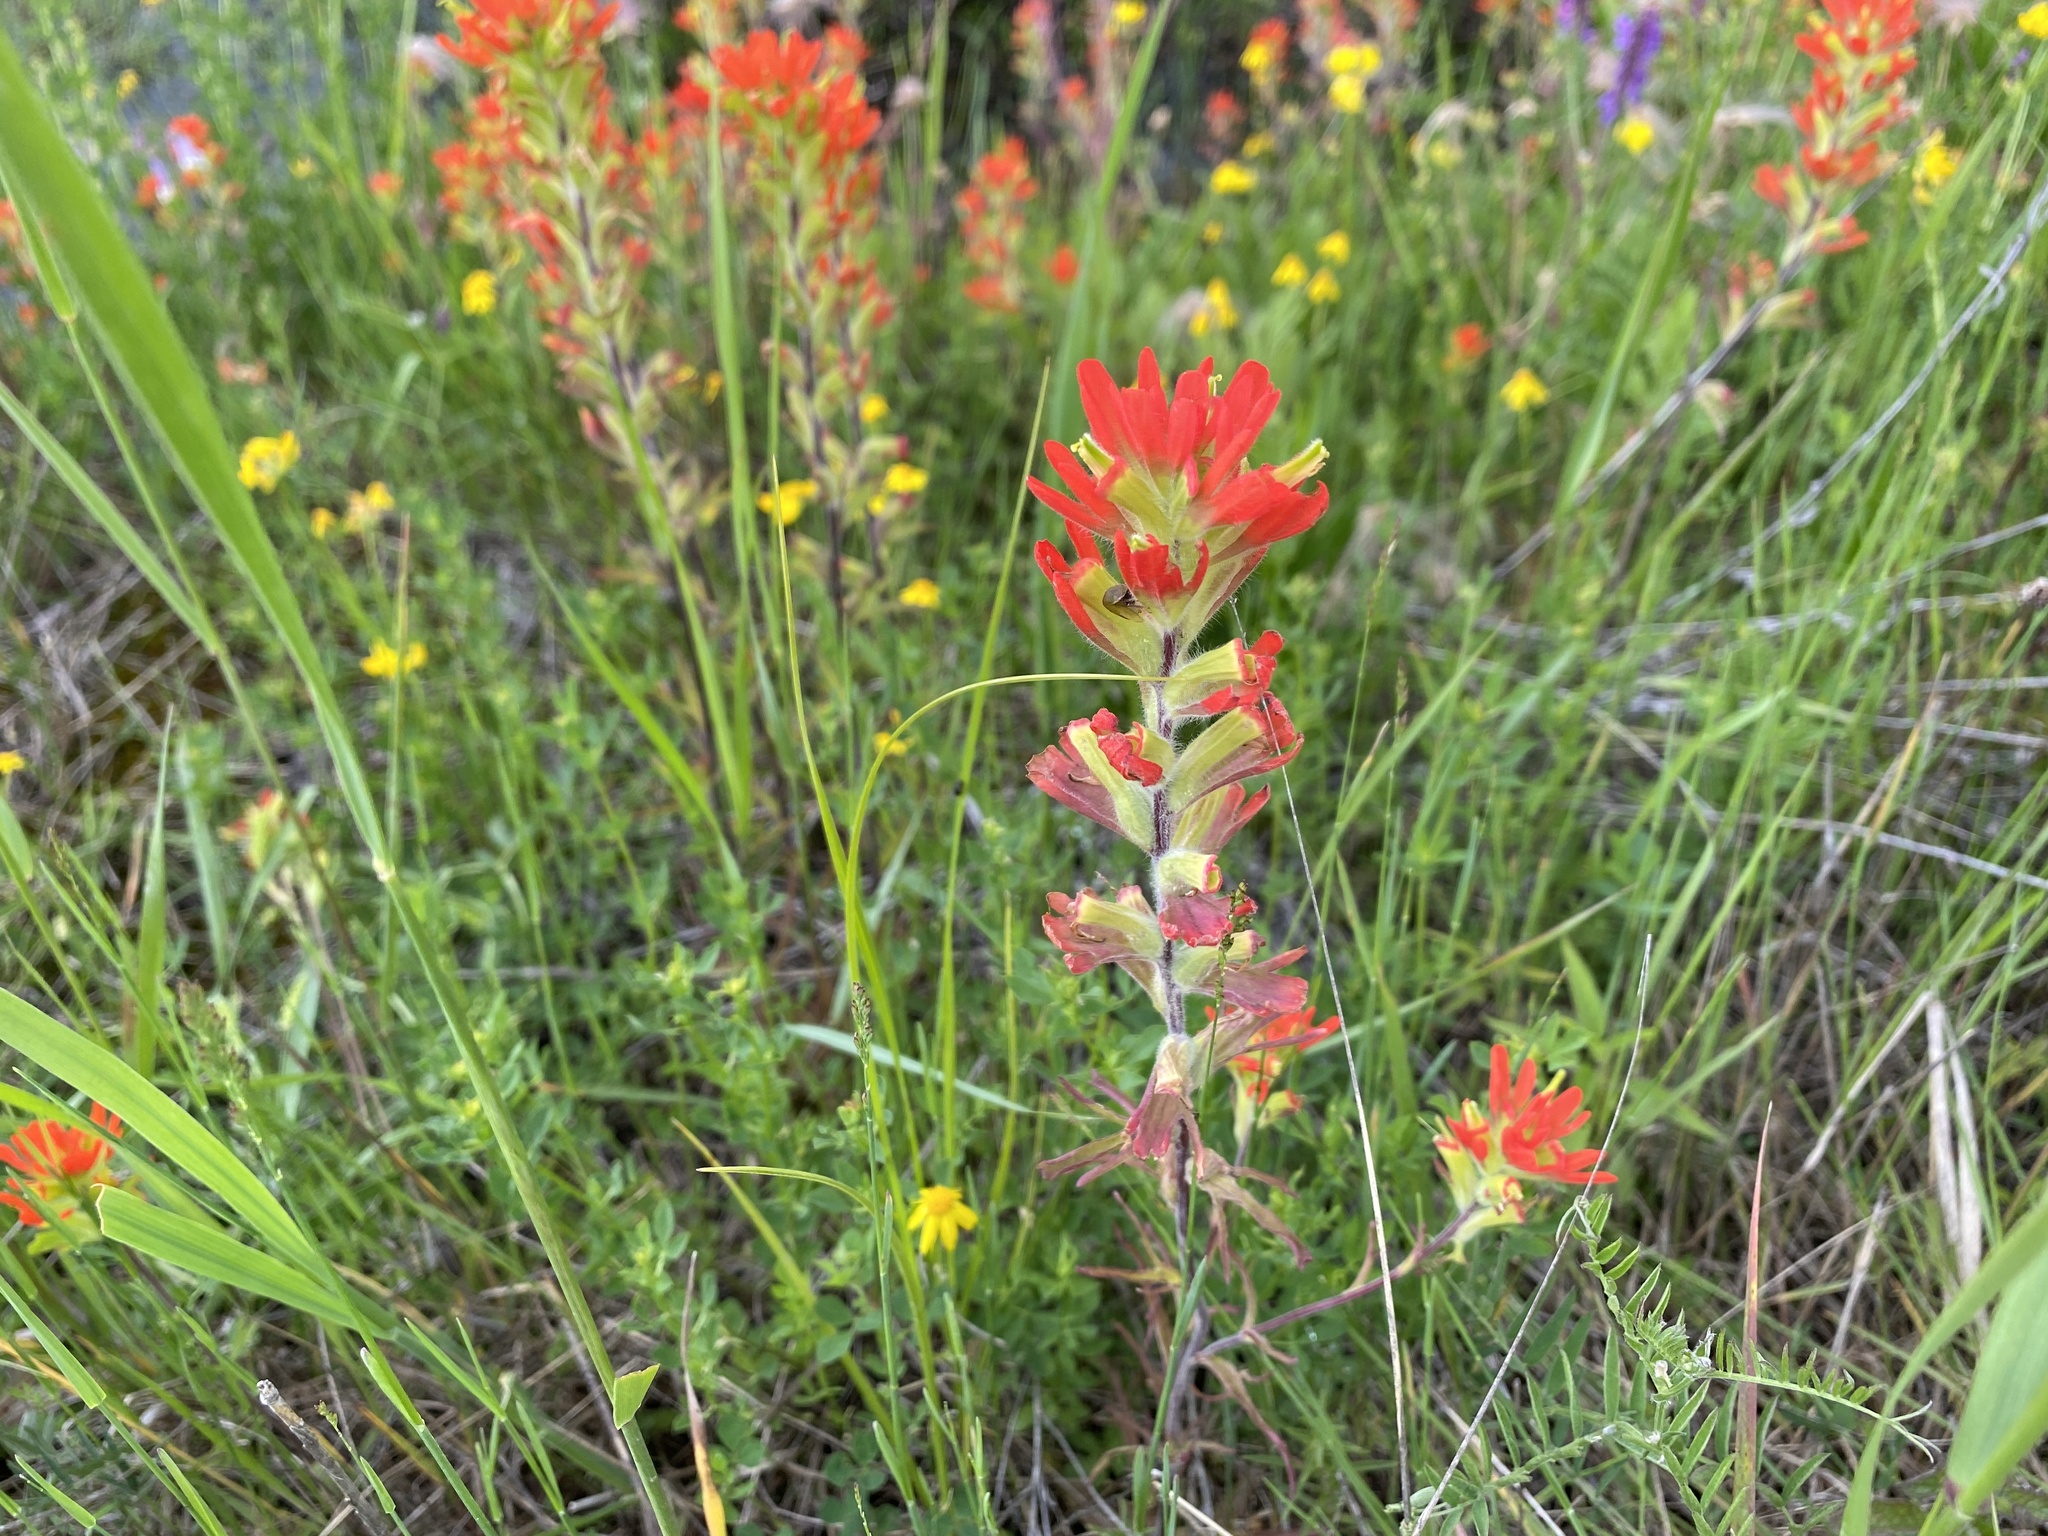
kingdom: Plantae
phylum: Tracheophyta
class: Magnoliopsida
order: Lamiales
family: Orobanchaceae
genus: Castilleja
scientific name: Castilleja coccinea
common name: Scarlet paintbrush
